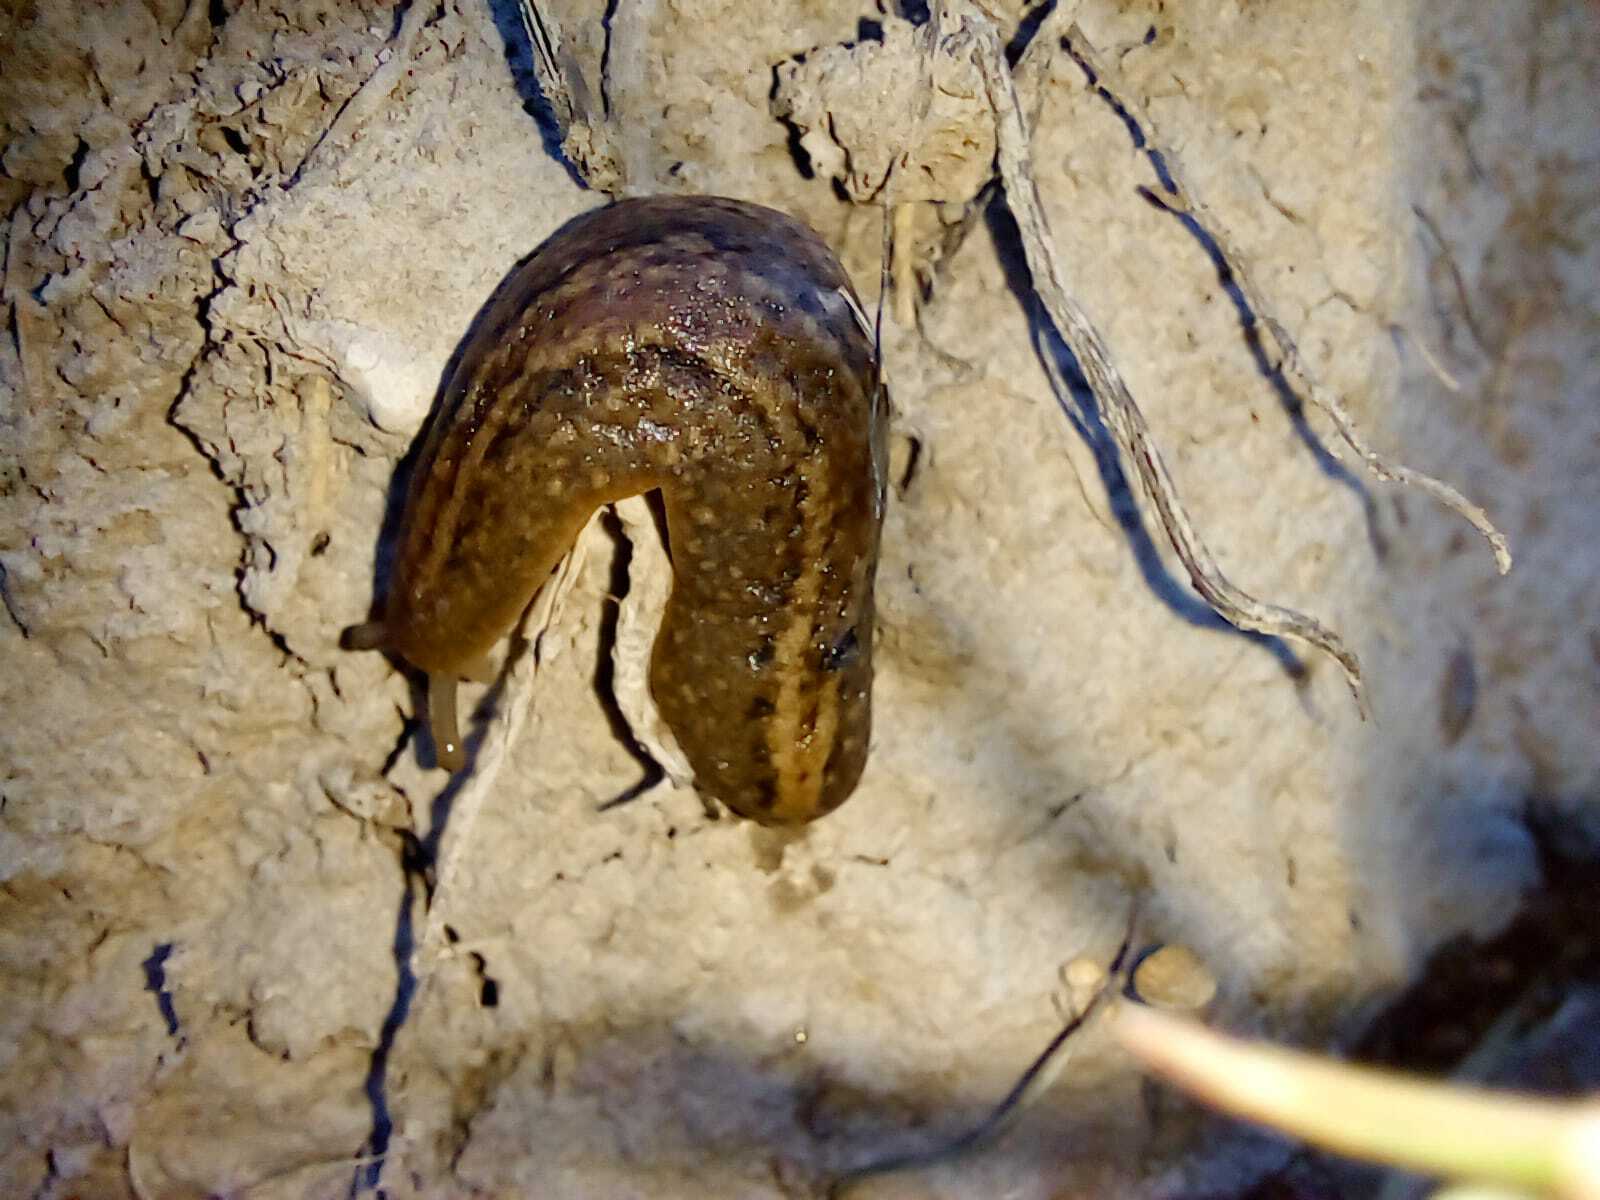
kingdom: Animalia
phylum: Mollusca
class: Gastropoda
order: Systellommatophora
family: Veronicellidae
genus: Phyllocaulis
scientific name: Phyllocaulis soleiformis
